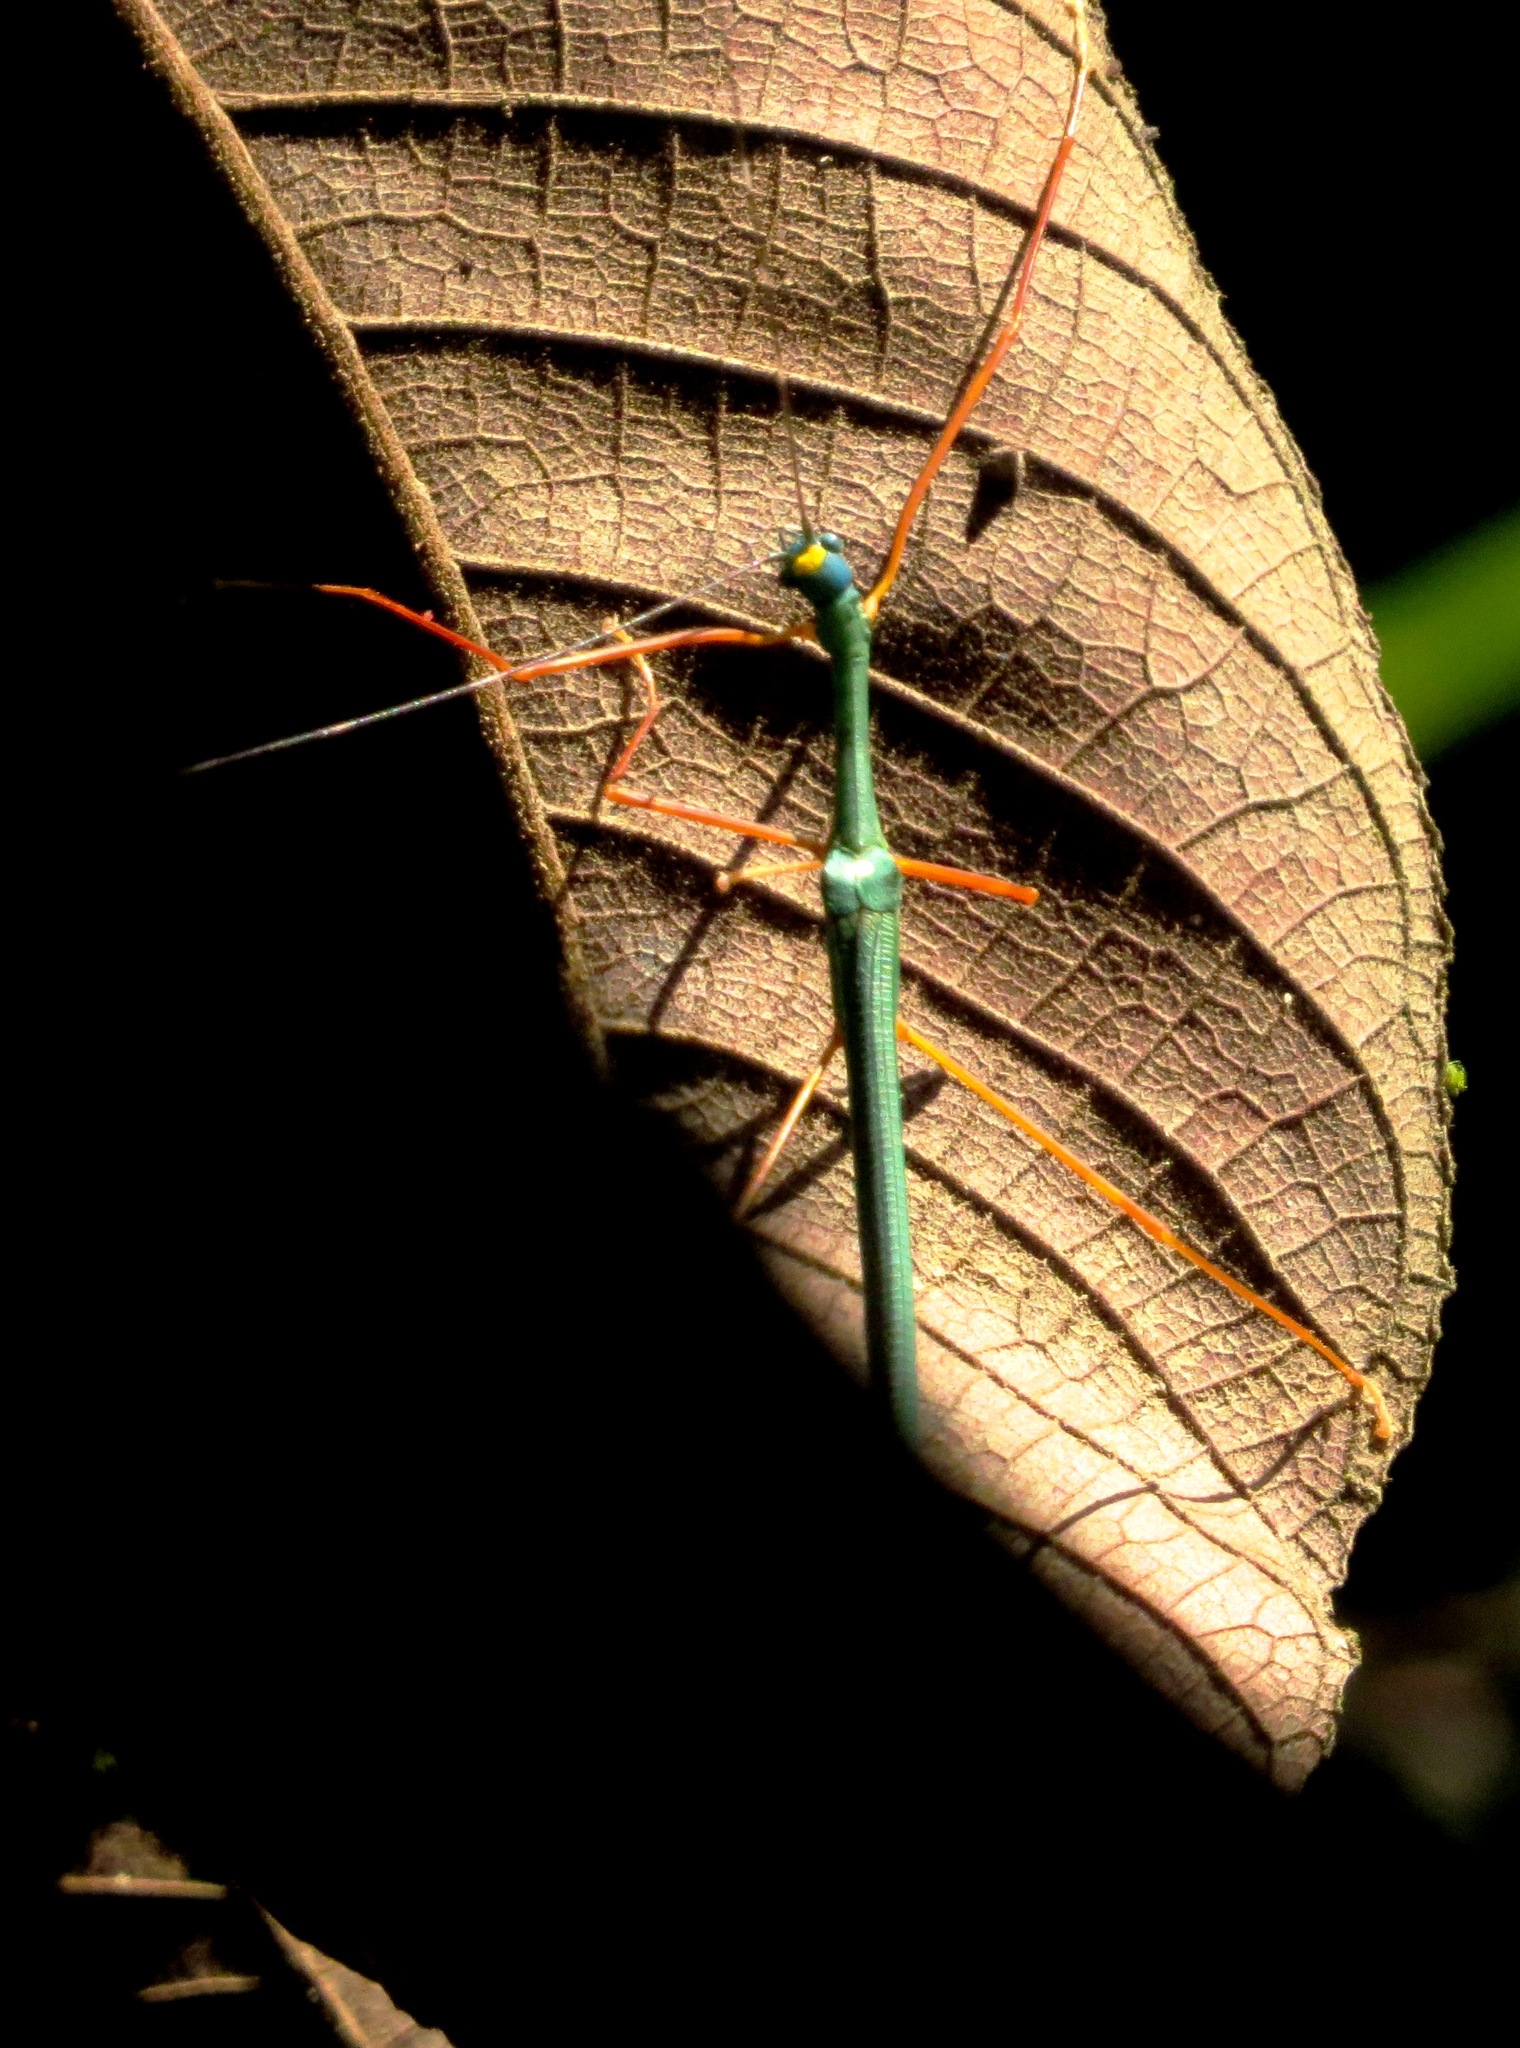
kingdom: Animalia
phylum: Arthropoda
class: Insecta
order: Phasmida
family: Lonchodidae
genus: Marmessoidea
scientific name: Marmessoidea rosea
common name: Yellow-spotted flying stick
